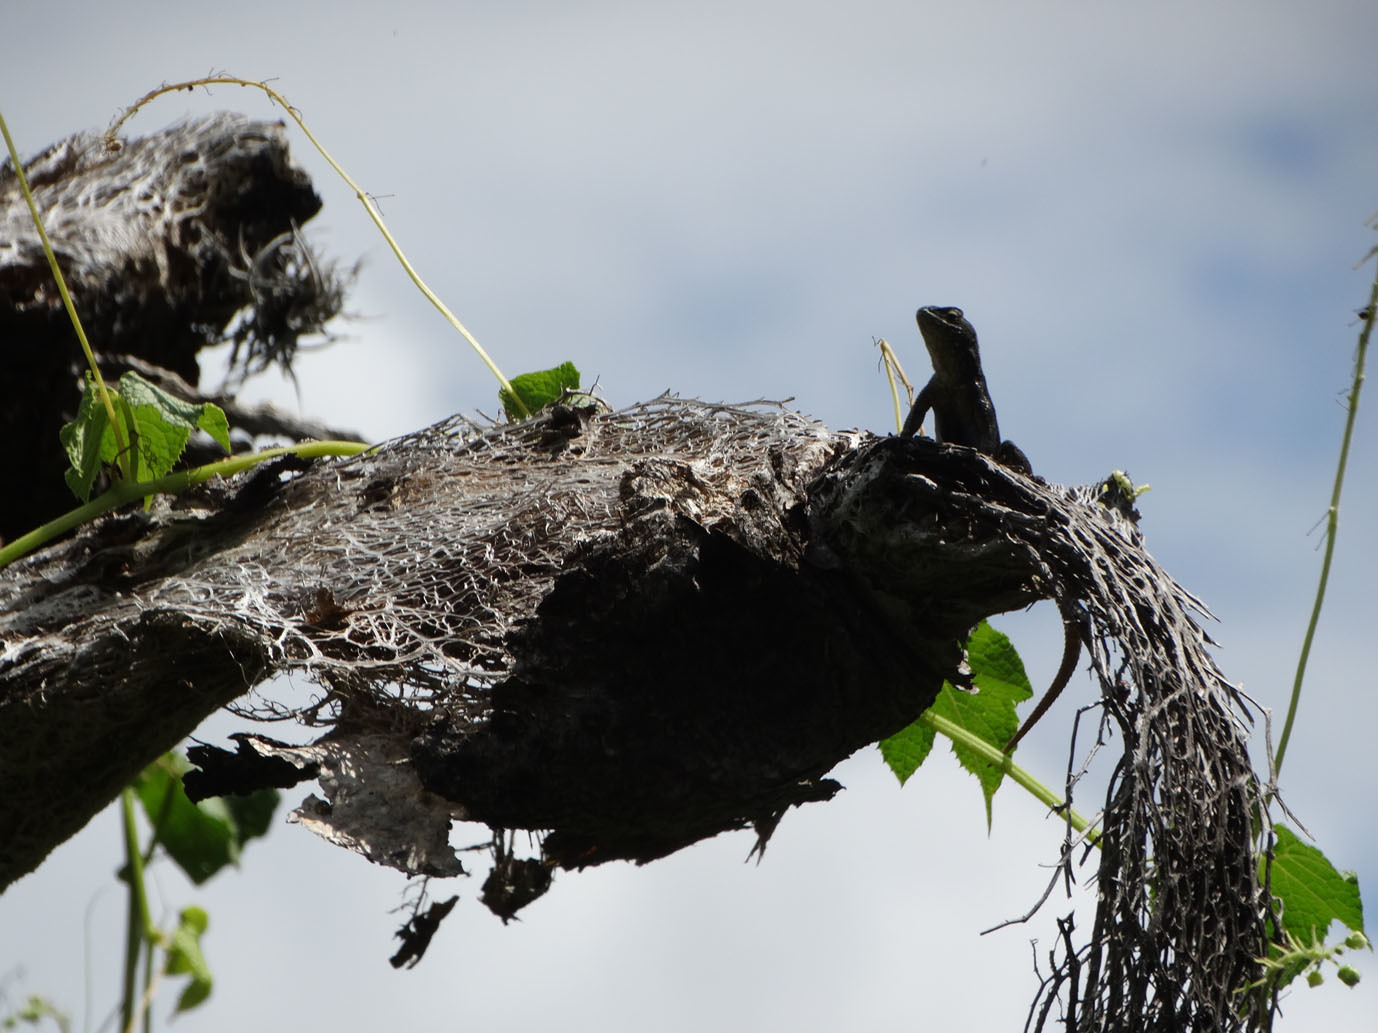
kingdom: Animalia
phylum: Chordata
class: Squamata
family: Phrynosomatidae
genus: Sceloporus
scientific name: Sceloporus grammicus
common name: Mesquite lizard
